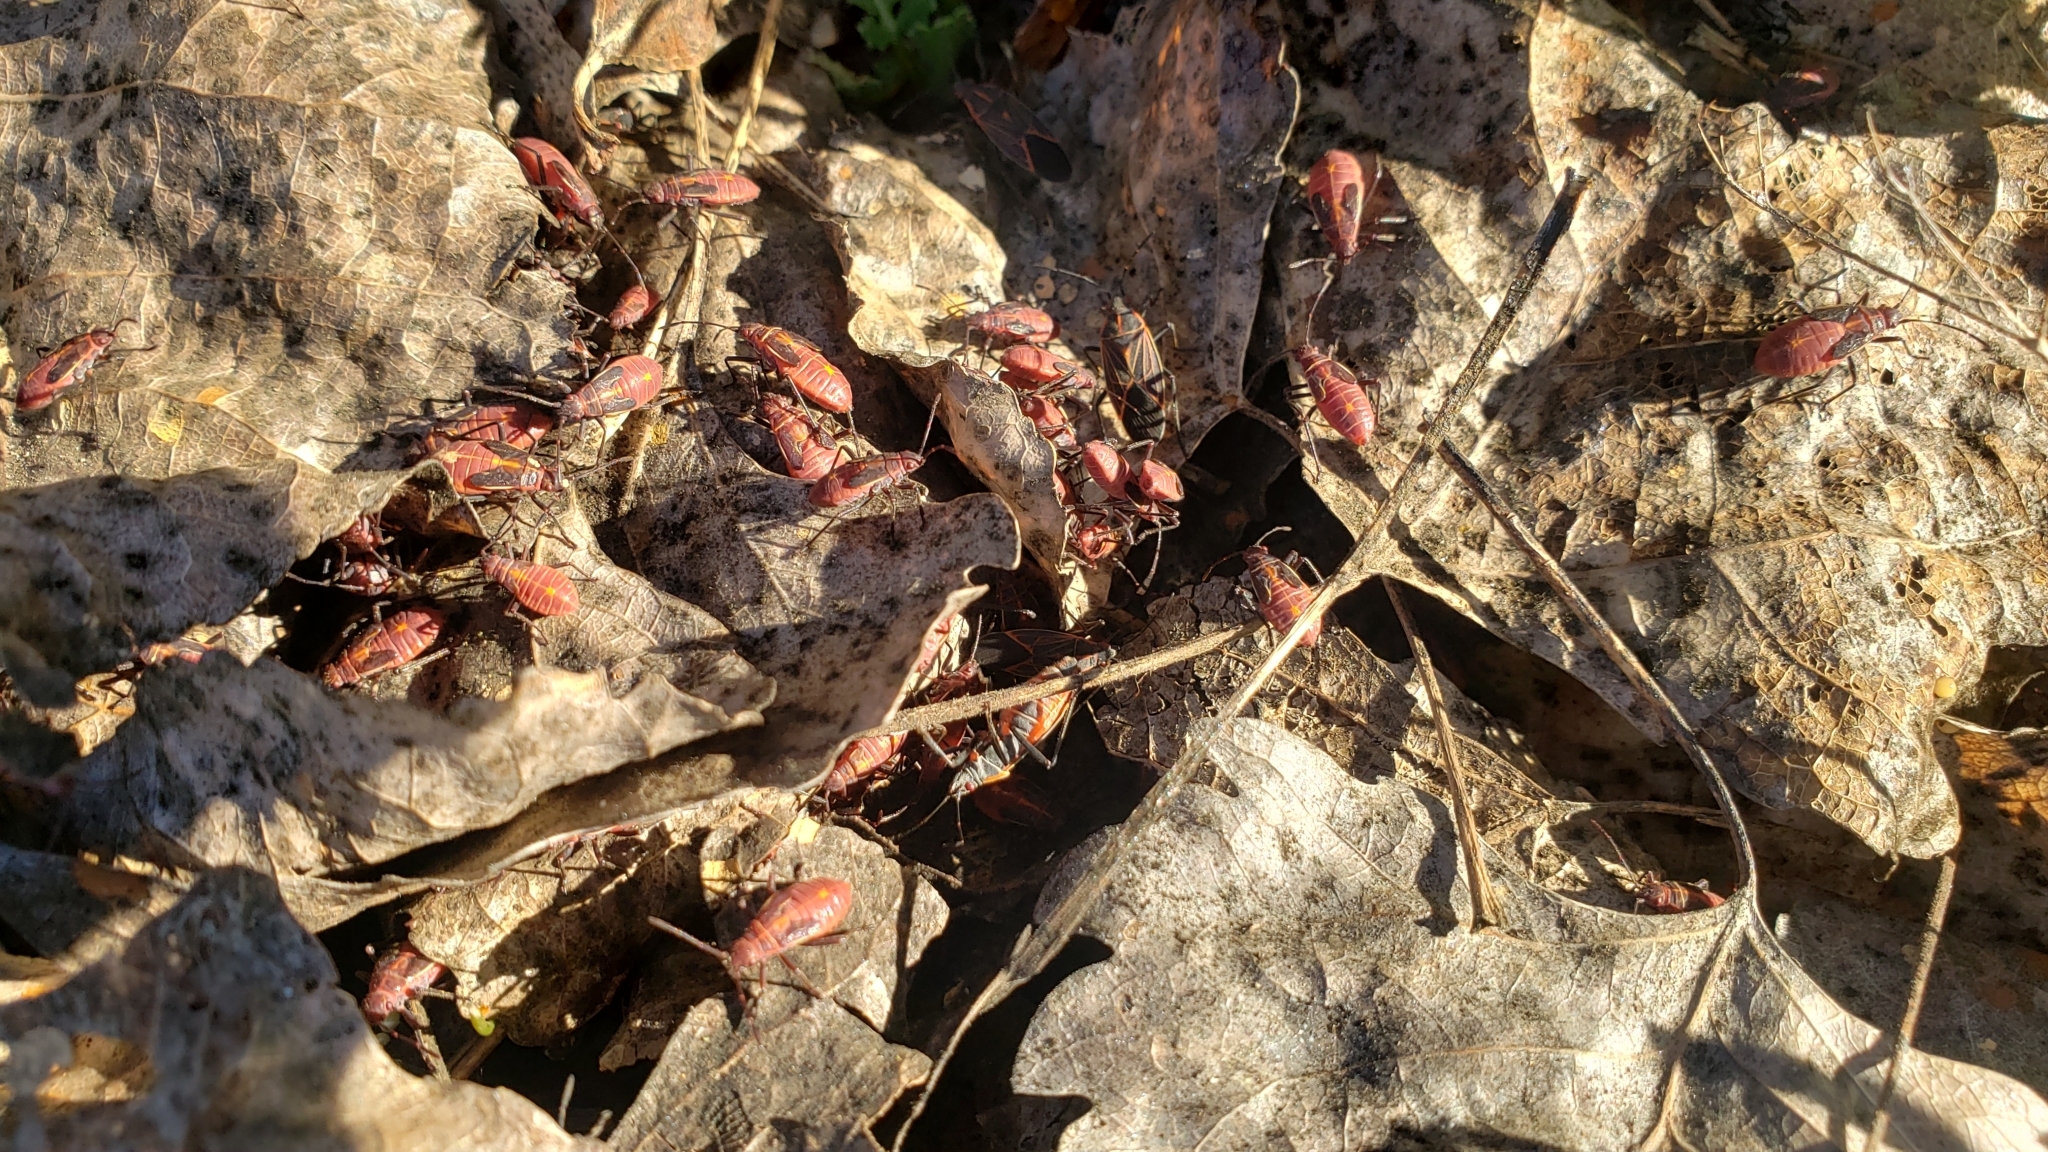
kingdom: Animalia
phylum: Arthropoda
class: Insecta
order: Hemiptera
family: Rhopalidae
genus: Boisea
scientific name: Boisea rubrolineata
